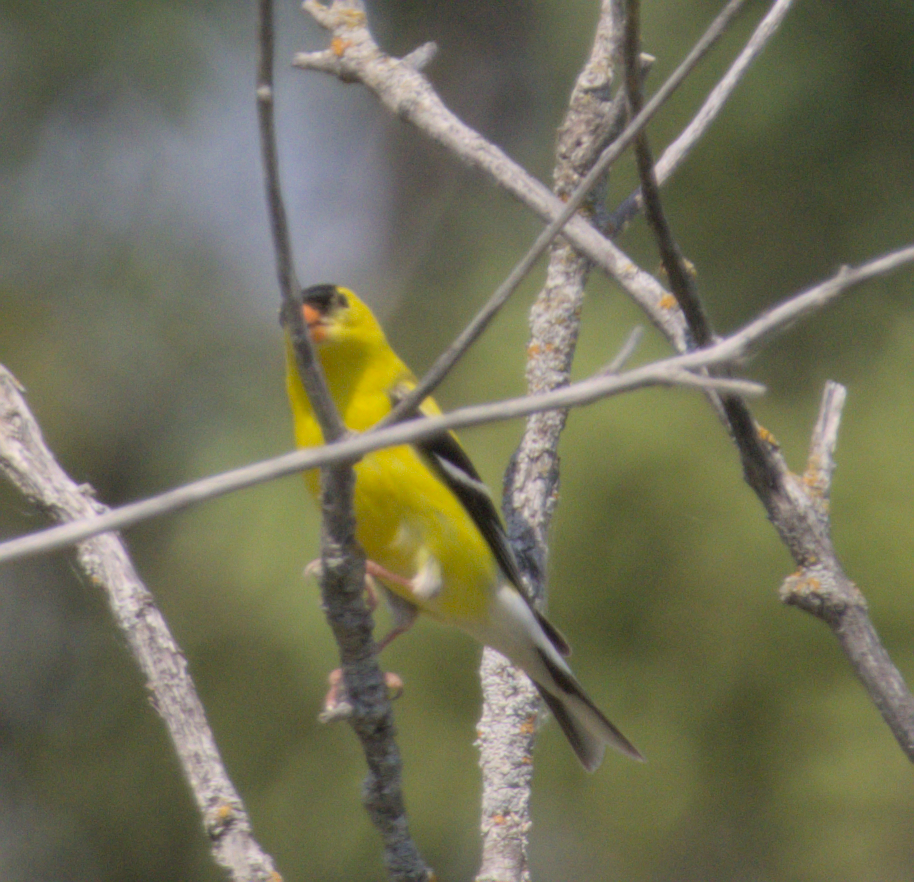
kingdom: Animalia
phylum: Chordata
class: Aves
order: Passeriformes
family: Fringillidae
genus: Spinus
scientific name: Spinus tristis
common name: American goldfinch
